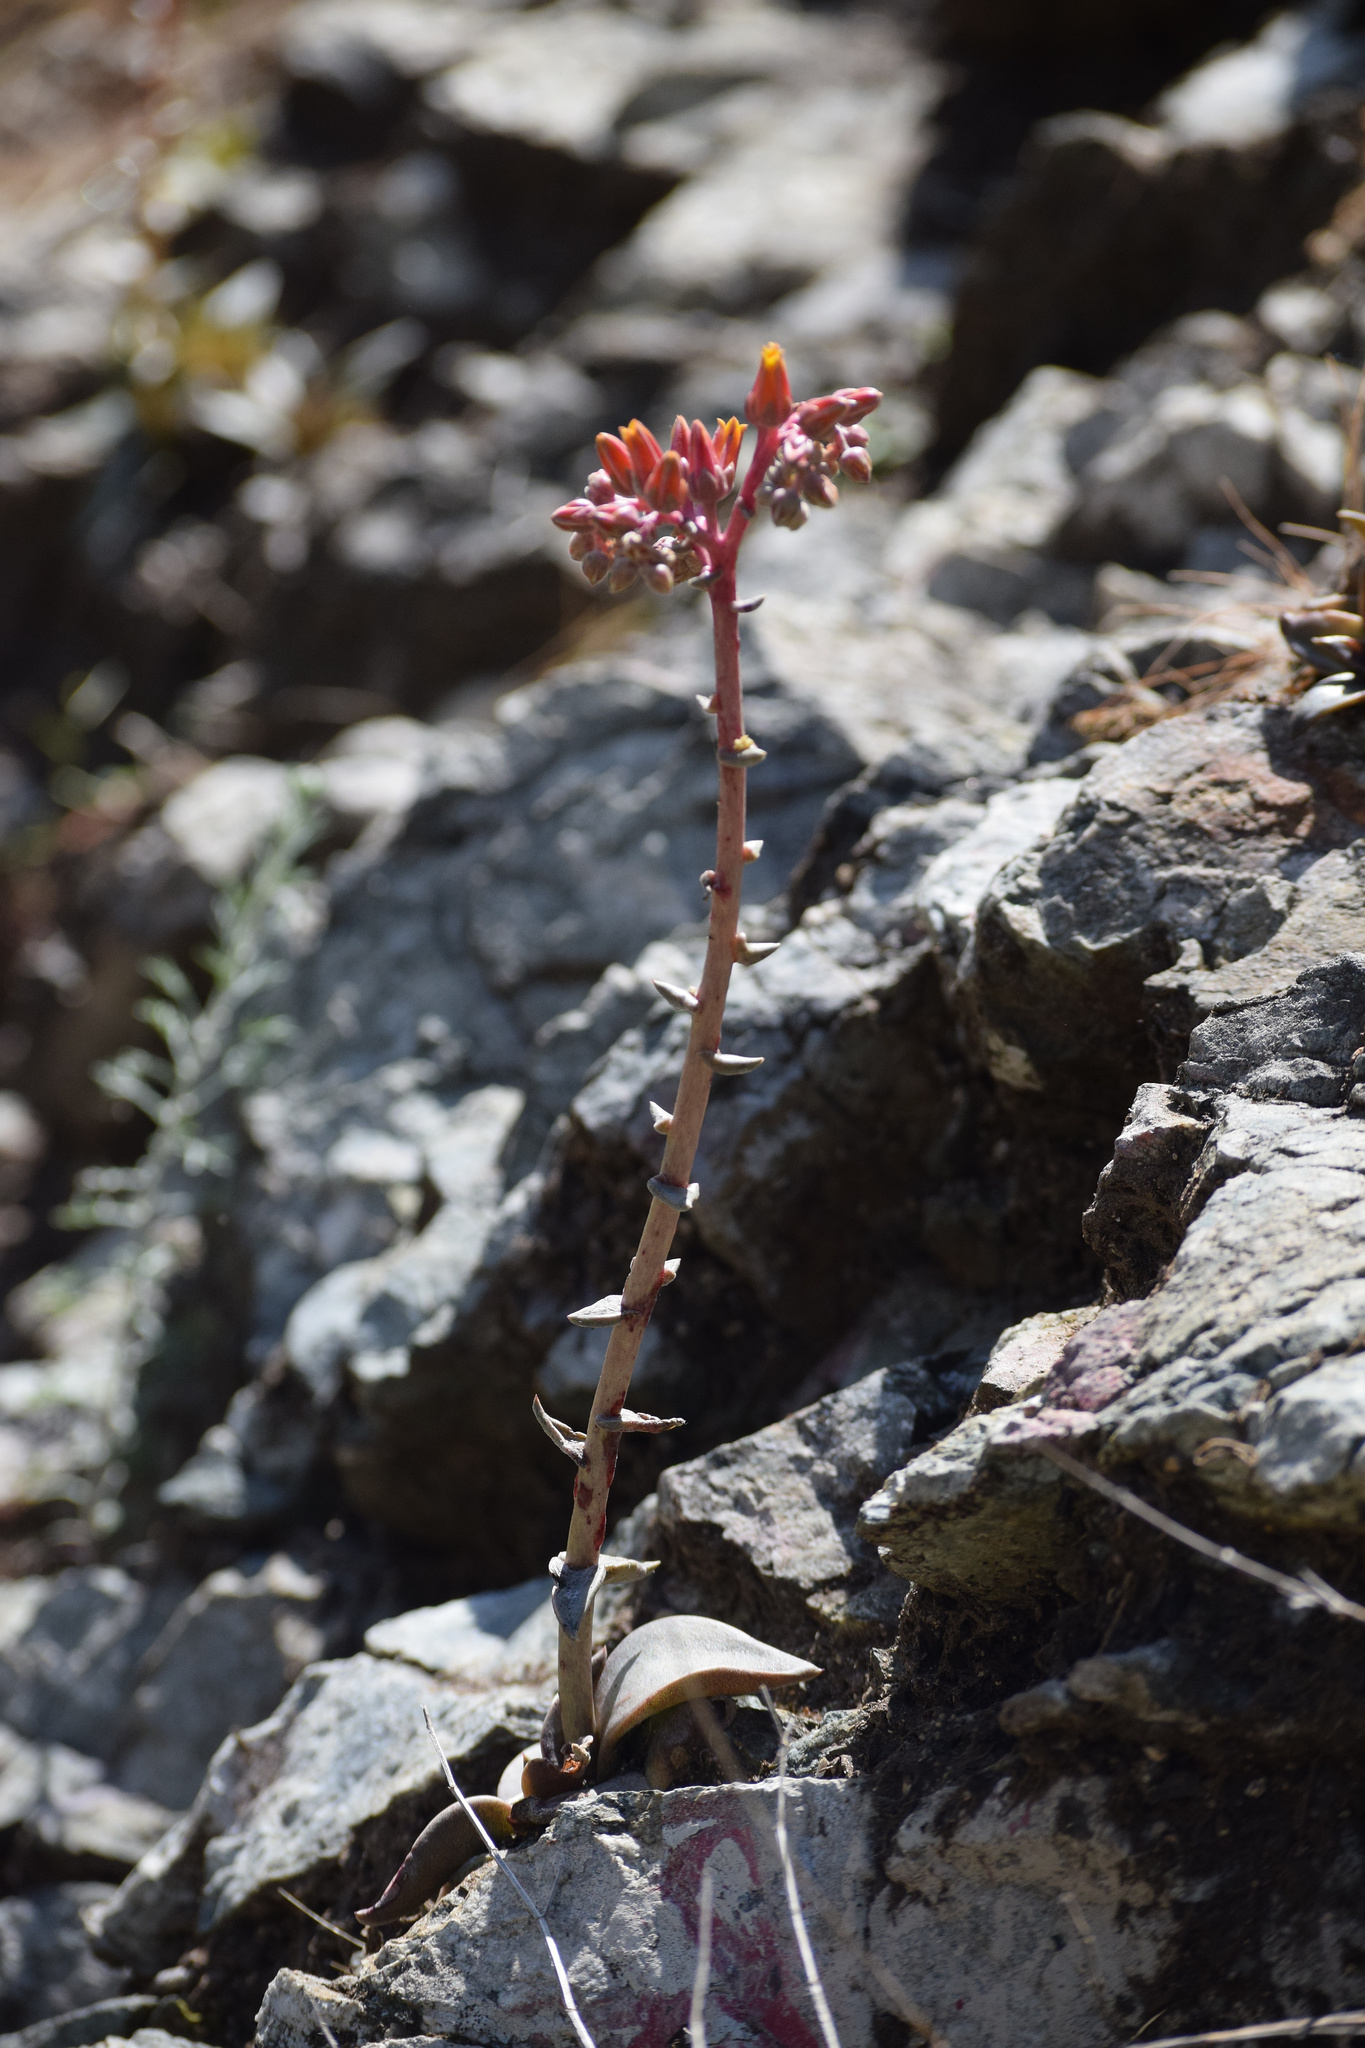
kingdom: Plantae
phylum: Tracheophyta
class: Magnoliopsida
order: Saxifragales
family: Crassulaceae
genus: Dudleya
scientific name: Dudleya lanceolata
